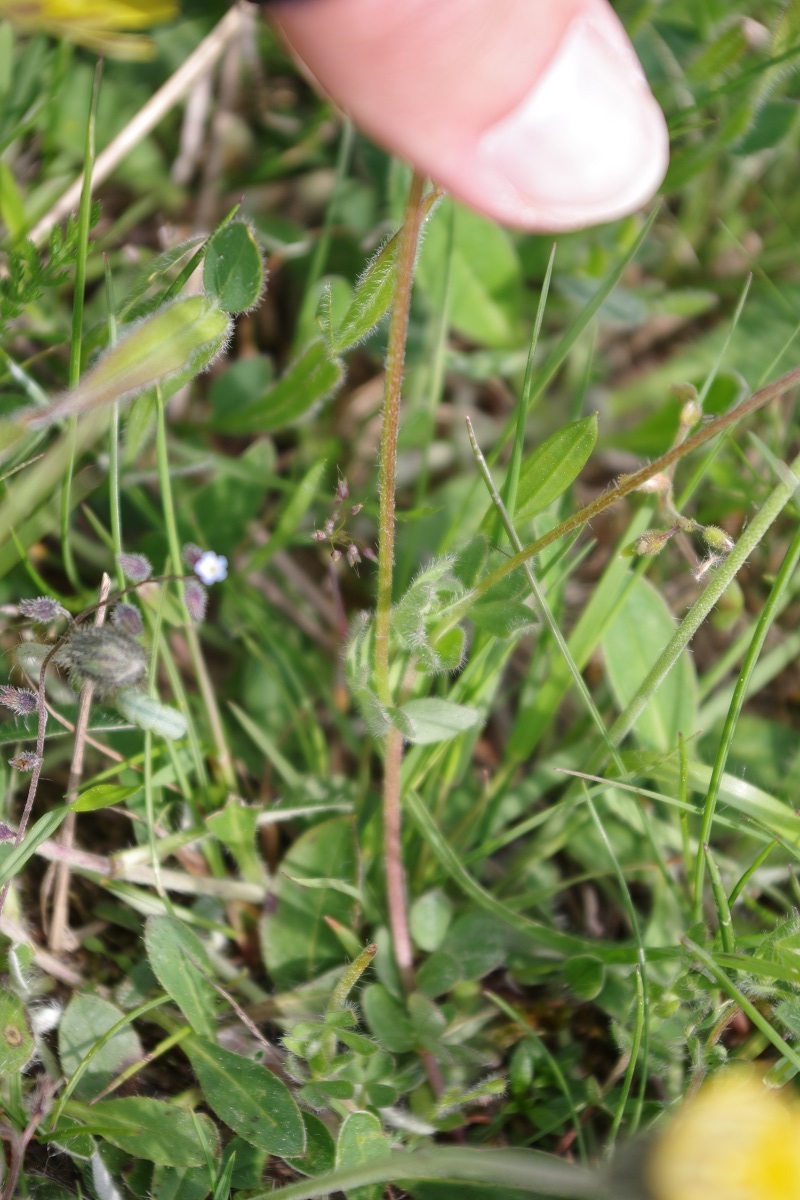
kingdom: Plantae
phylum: Tracheophyta
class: Magnoliopsida
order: Fabales
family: Fabaceae
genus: Lotus
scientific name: Lotus corniculatus
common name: Common bird's-foot-trefoil
